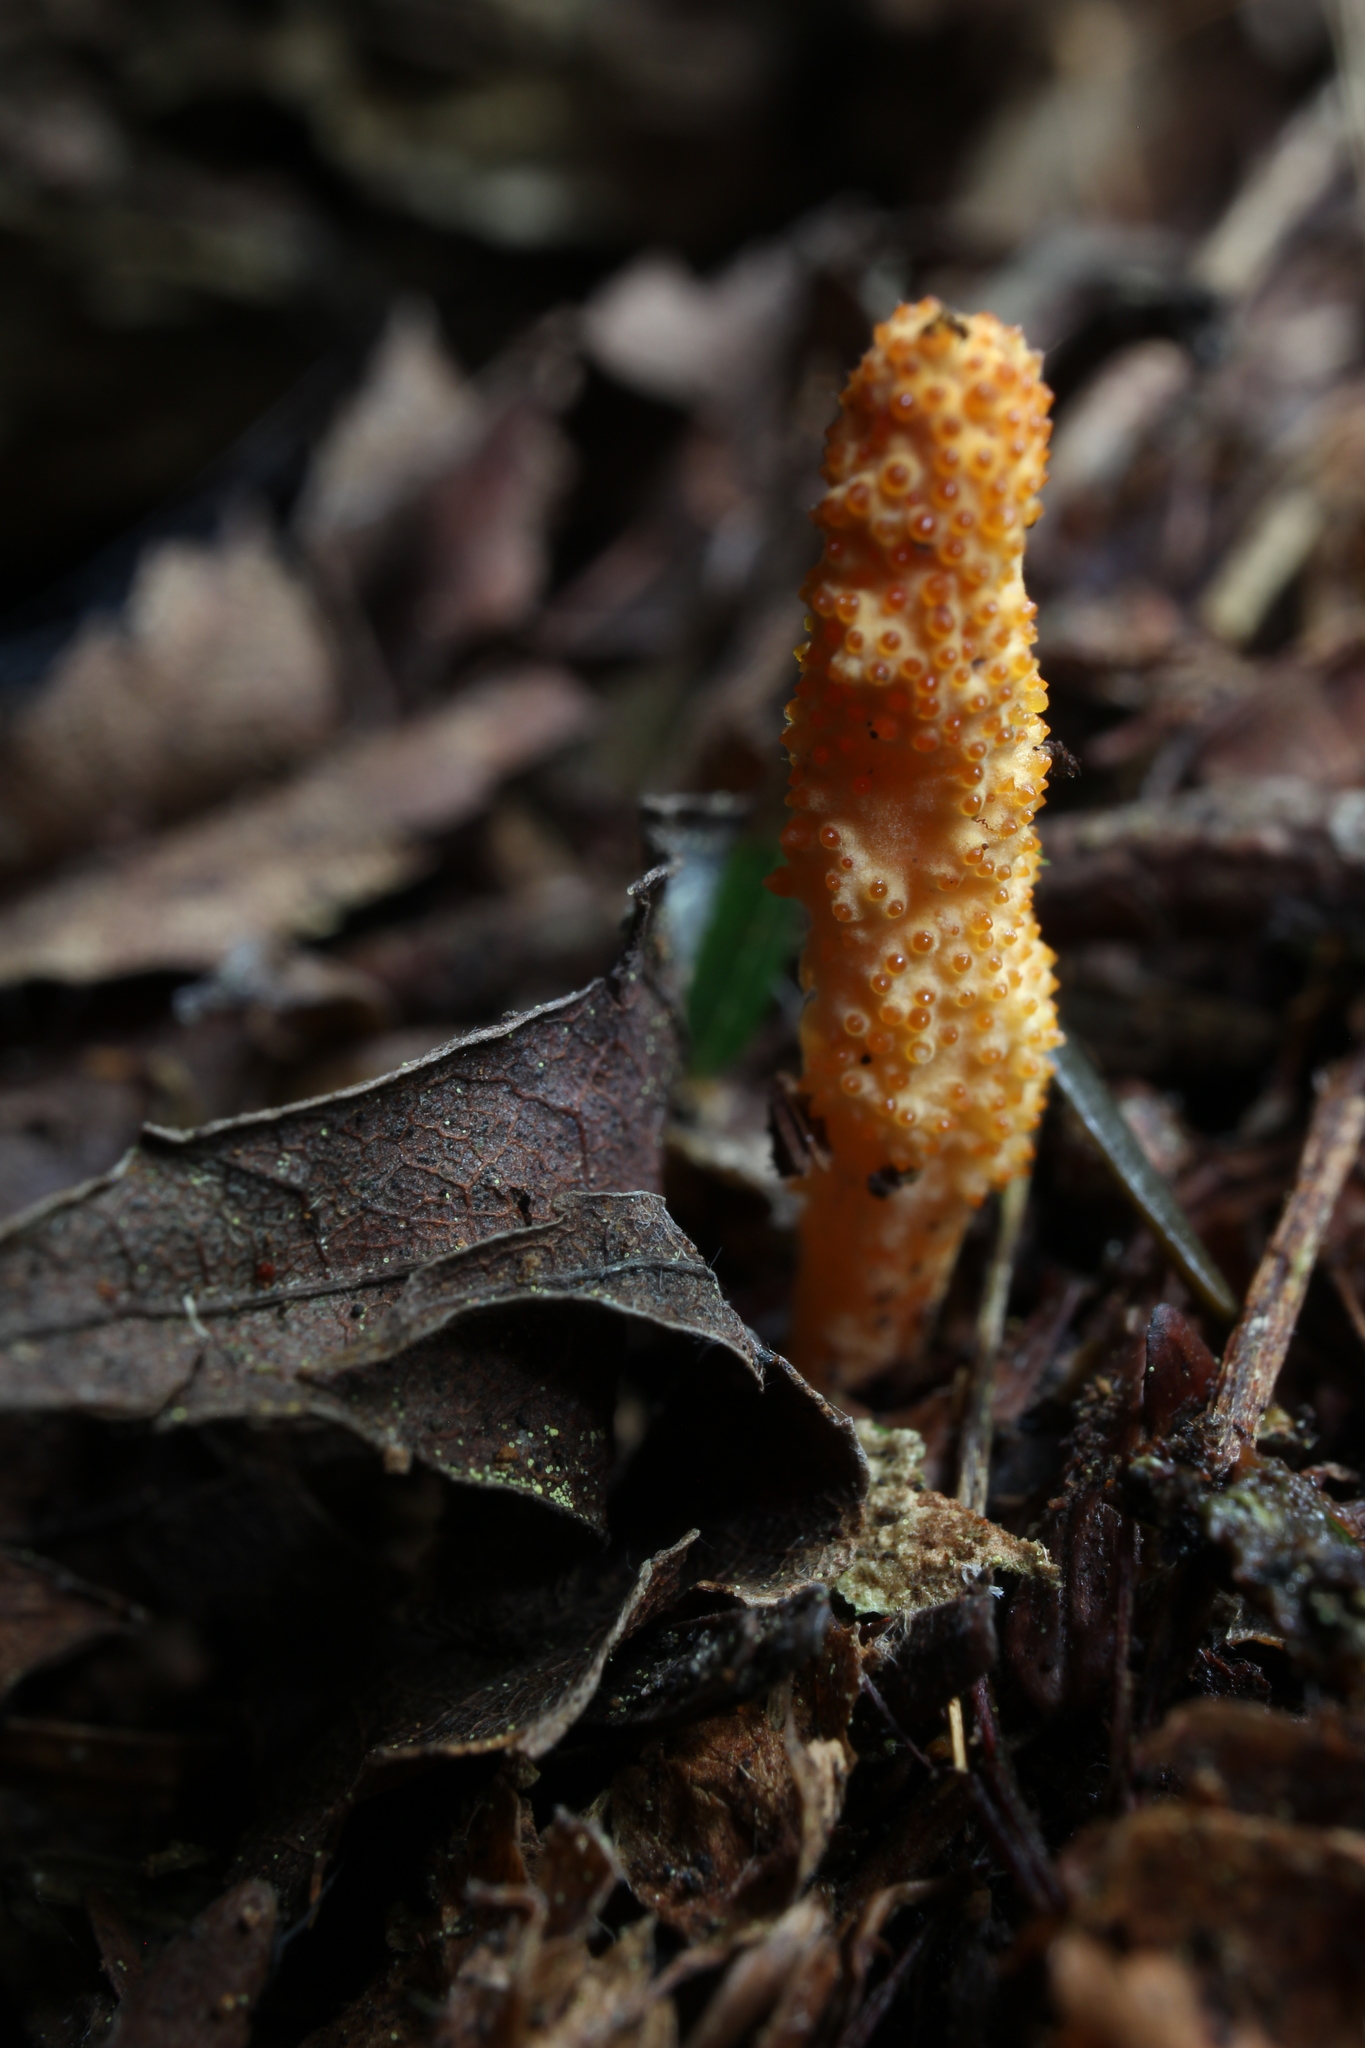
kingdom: Fungi
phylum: Ascomycota
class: Sordariomycetes
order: Hypocreales
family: Cordycipitaceae
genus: Cordyceps
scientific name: Cordyceps militaris
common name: Scarlet caterpillar fungus
